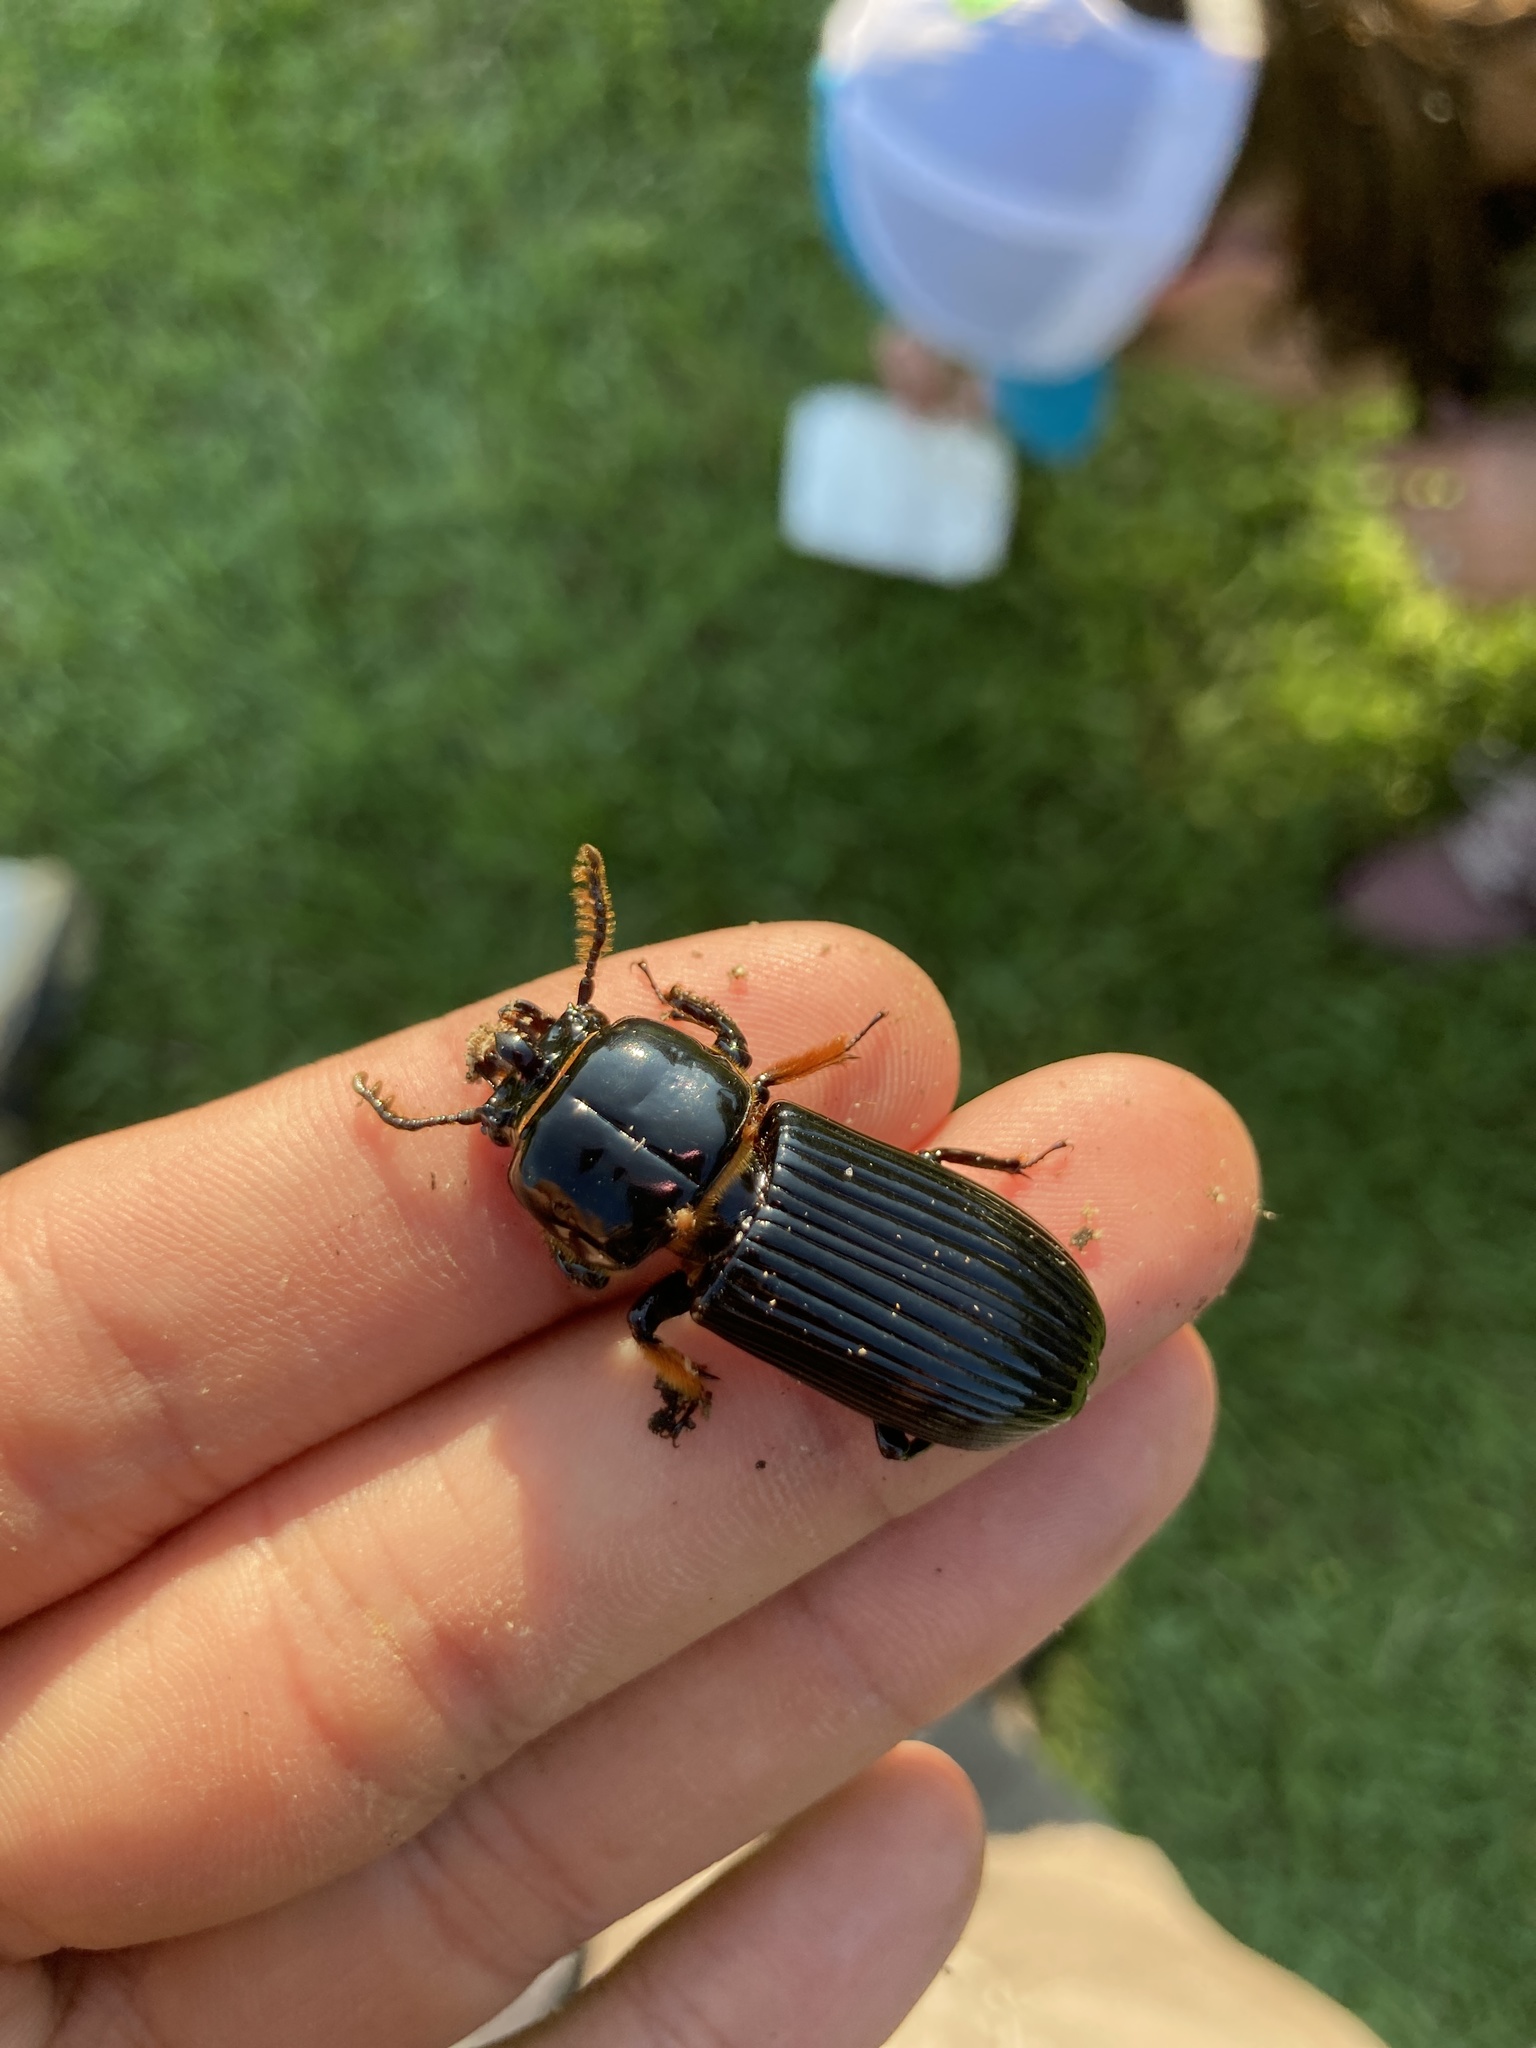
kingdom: Animalia
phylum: Arthropoda
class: Insecta
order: Coleoptera
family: Passalidae
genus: Odontotaenius
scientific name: Odontotaenius disjunctus
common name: Patent leather beetle
